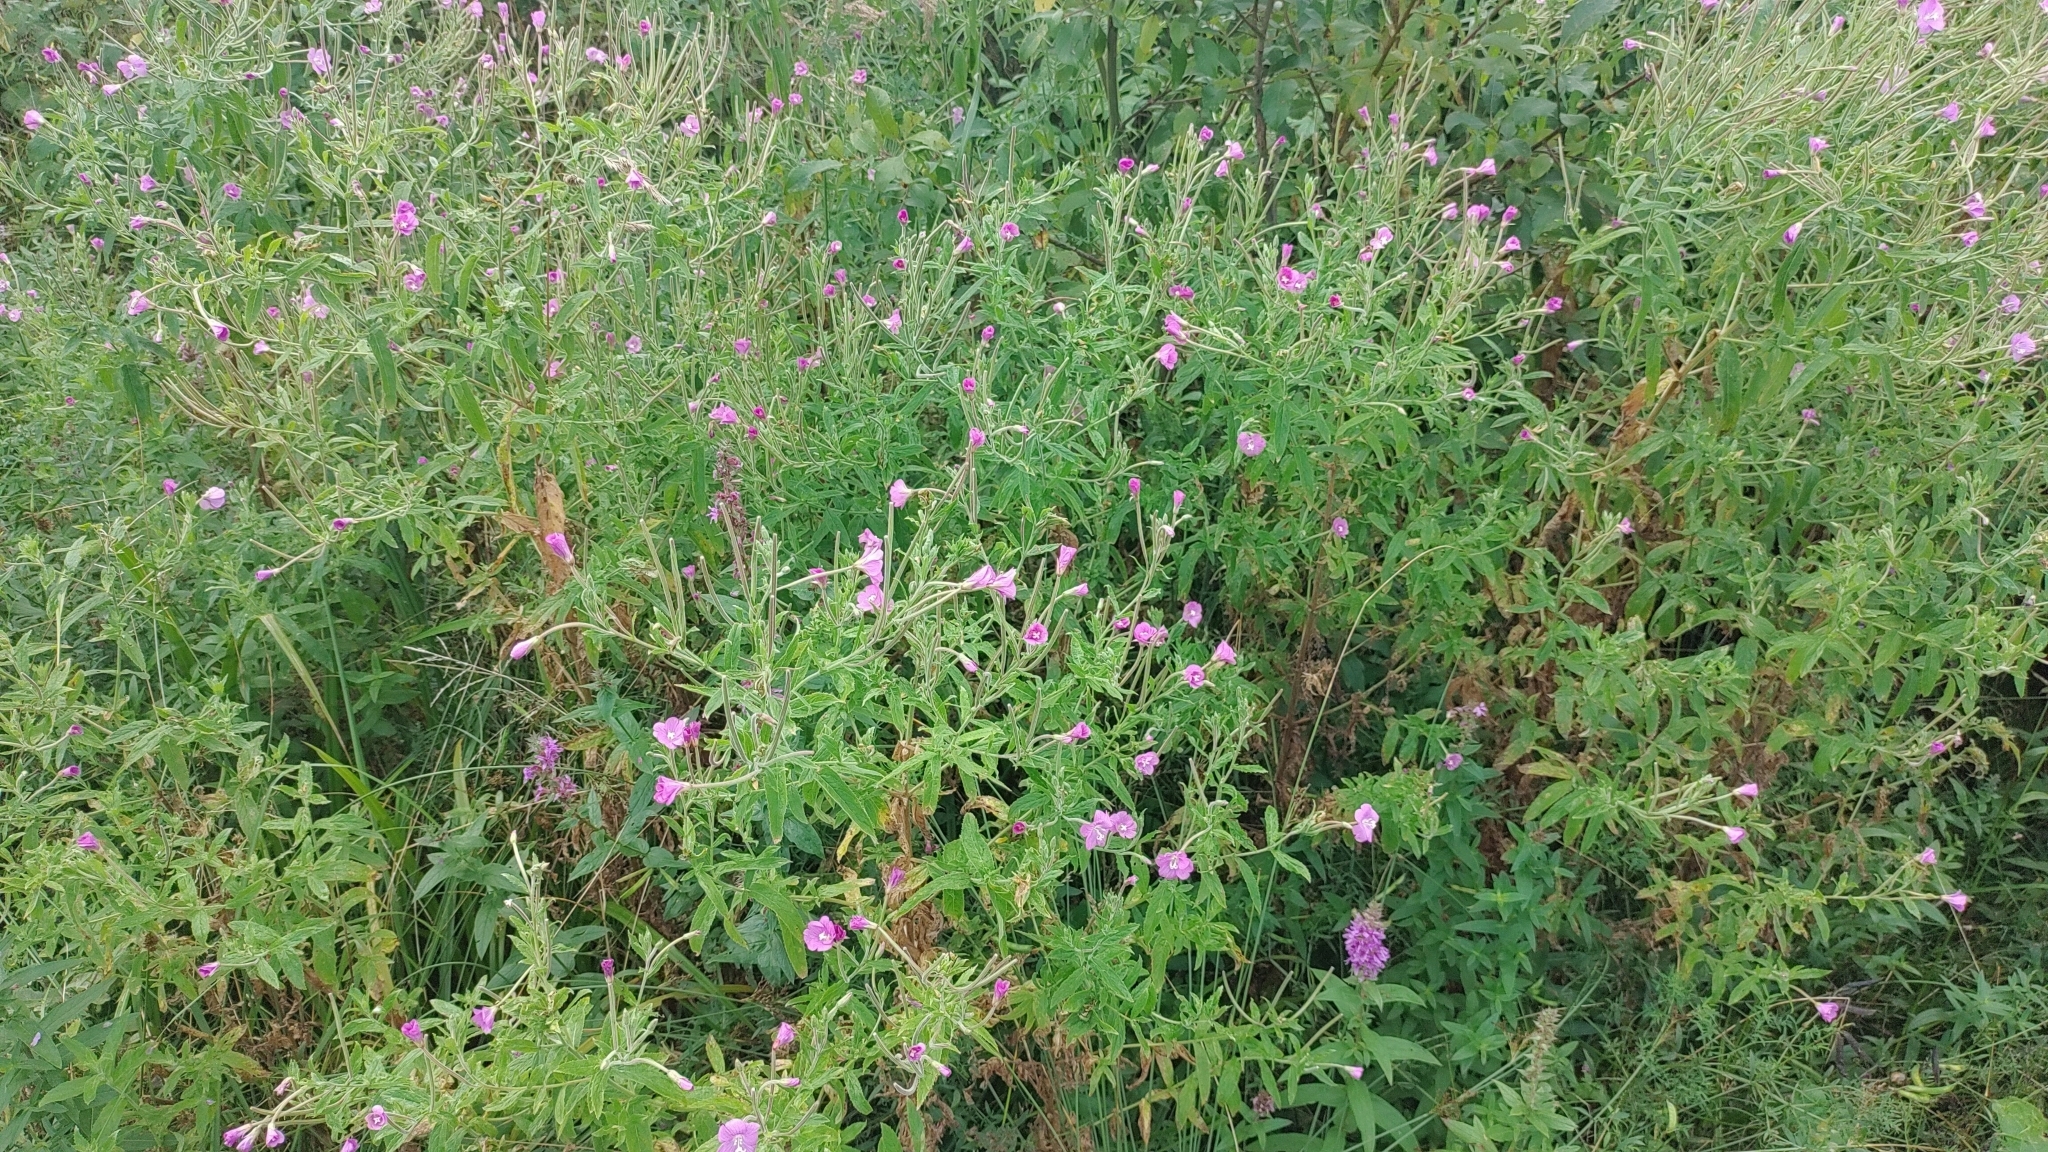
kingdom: Plantae
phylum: Tracheophyta
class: Magnoliopsida
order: Myrtales
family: Onagraceae
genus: Epilobium
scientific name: Epilobium hirsutum
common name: Great willowherb
